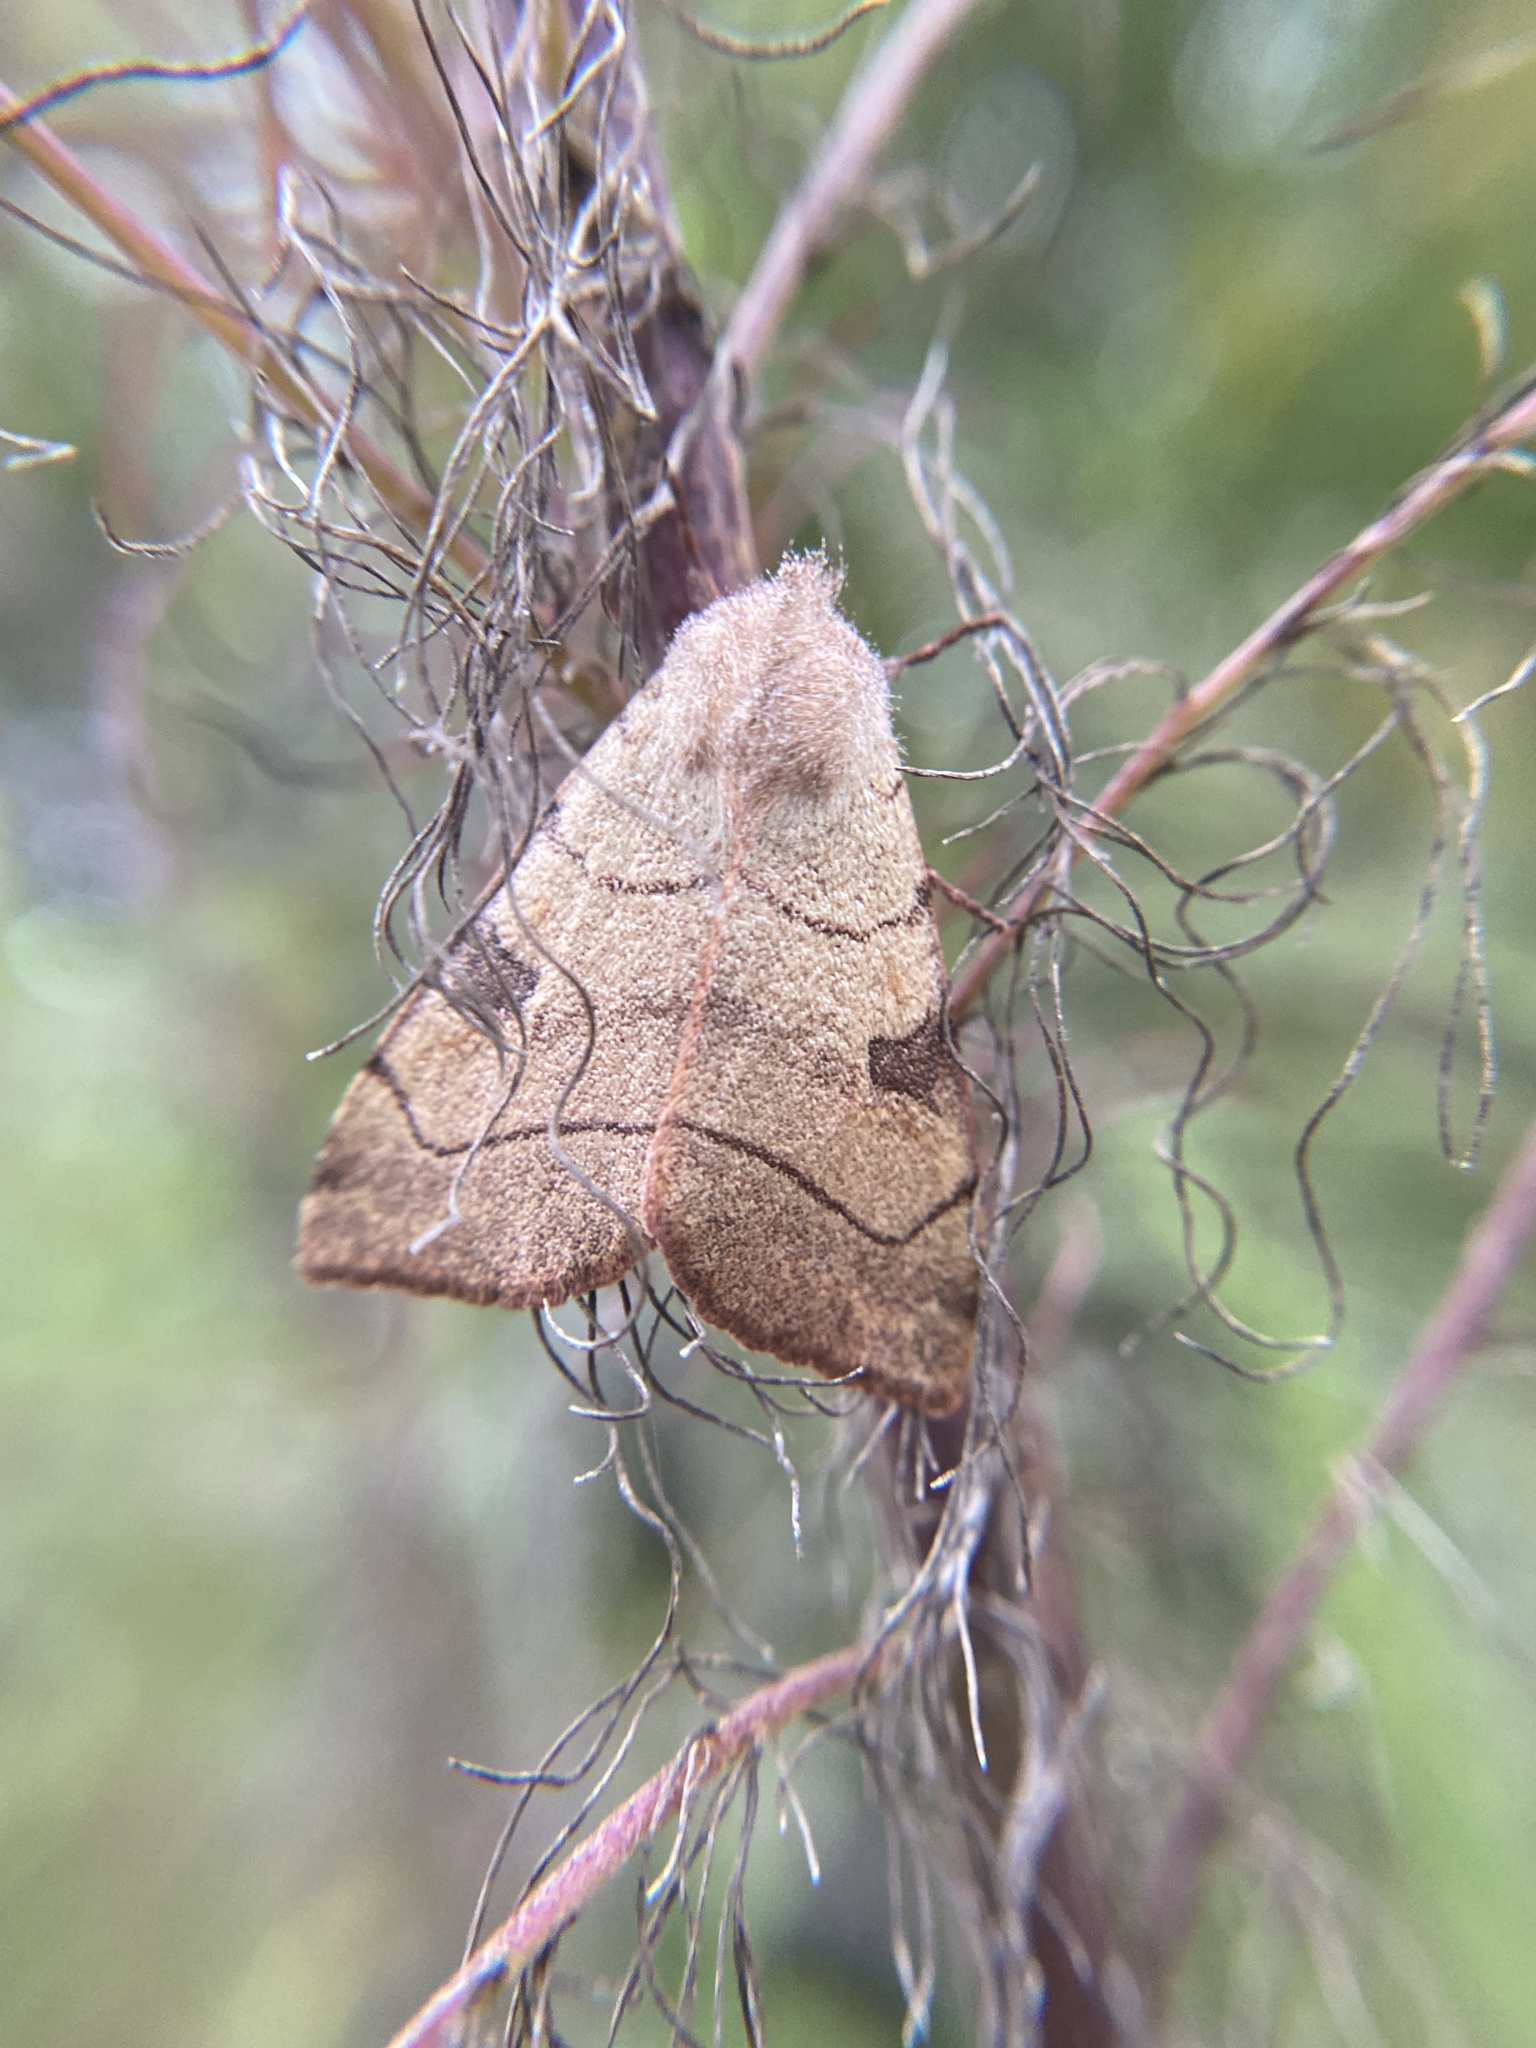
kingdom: Animalia
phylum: Arthropoda
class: Insecta
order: Lepidoptera
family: Noctuidae
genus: Choephora
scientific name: Choephora fungorum
